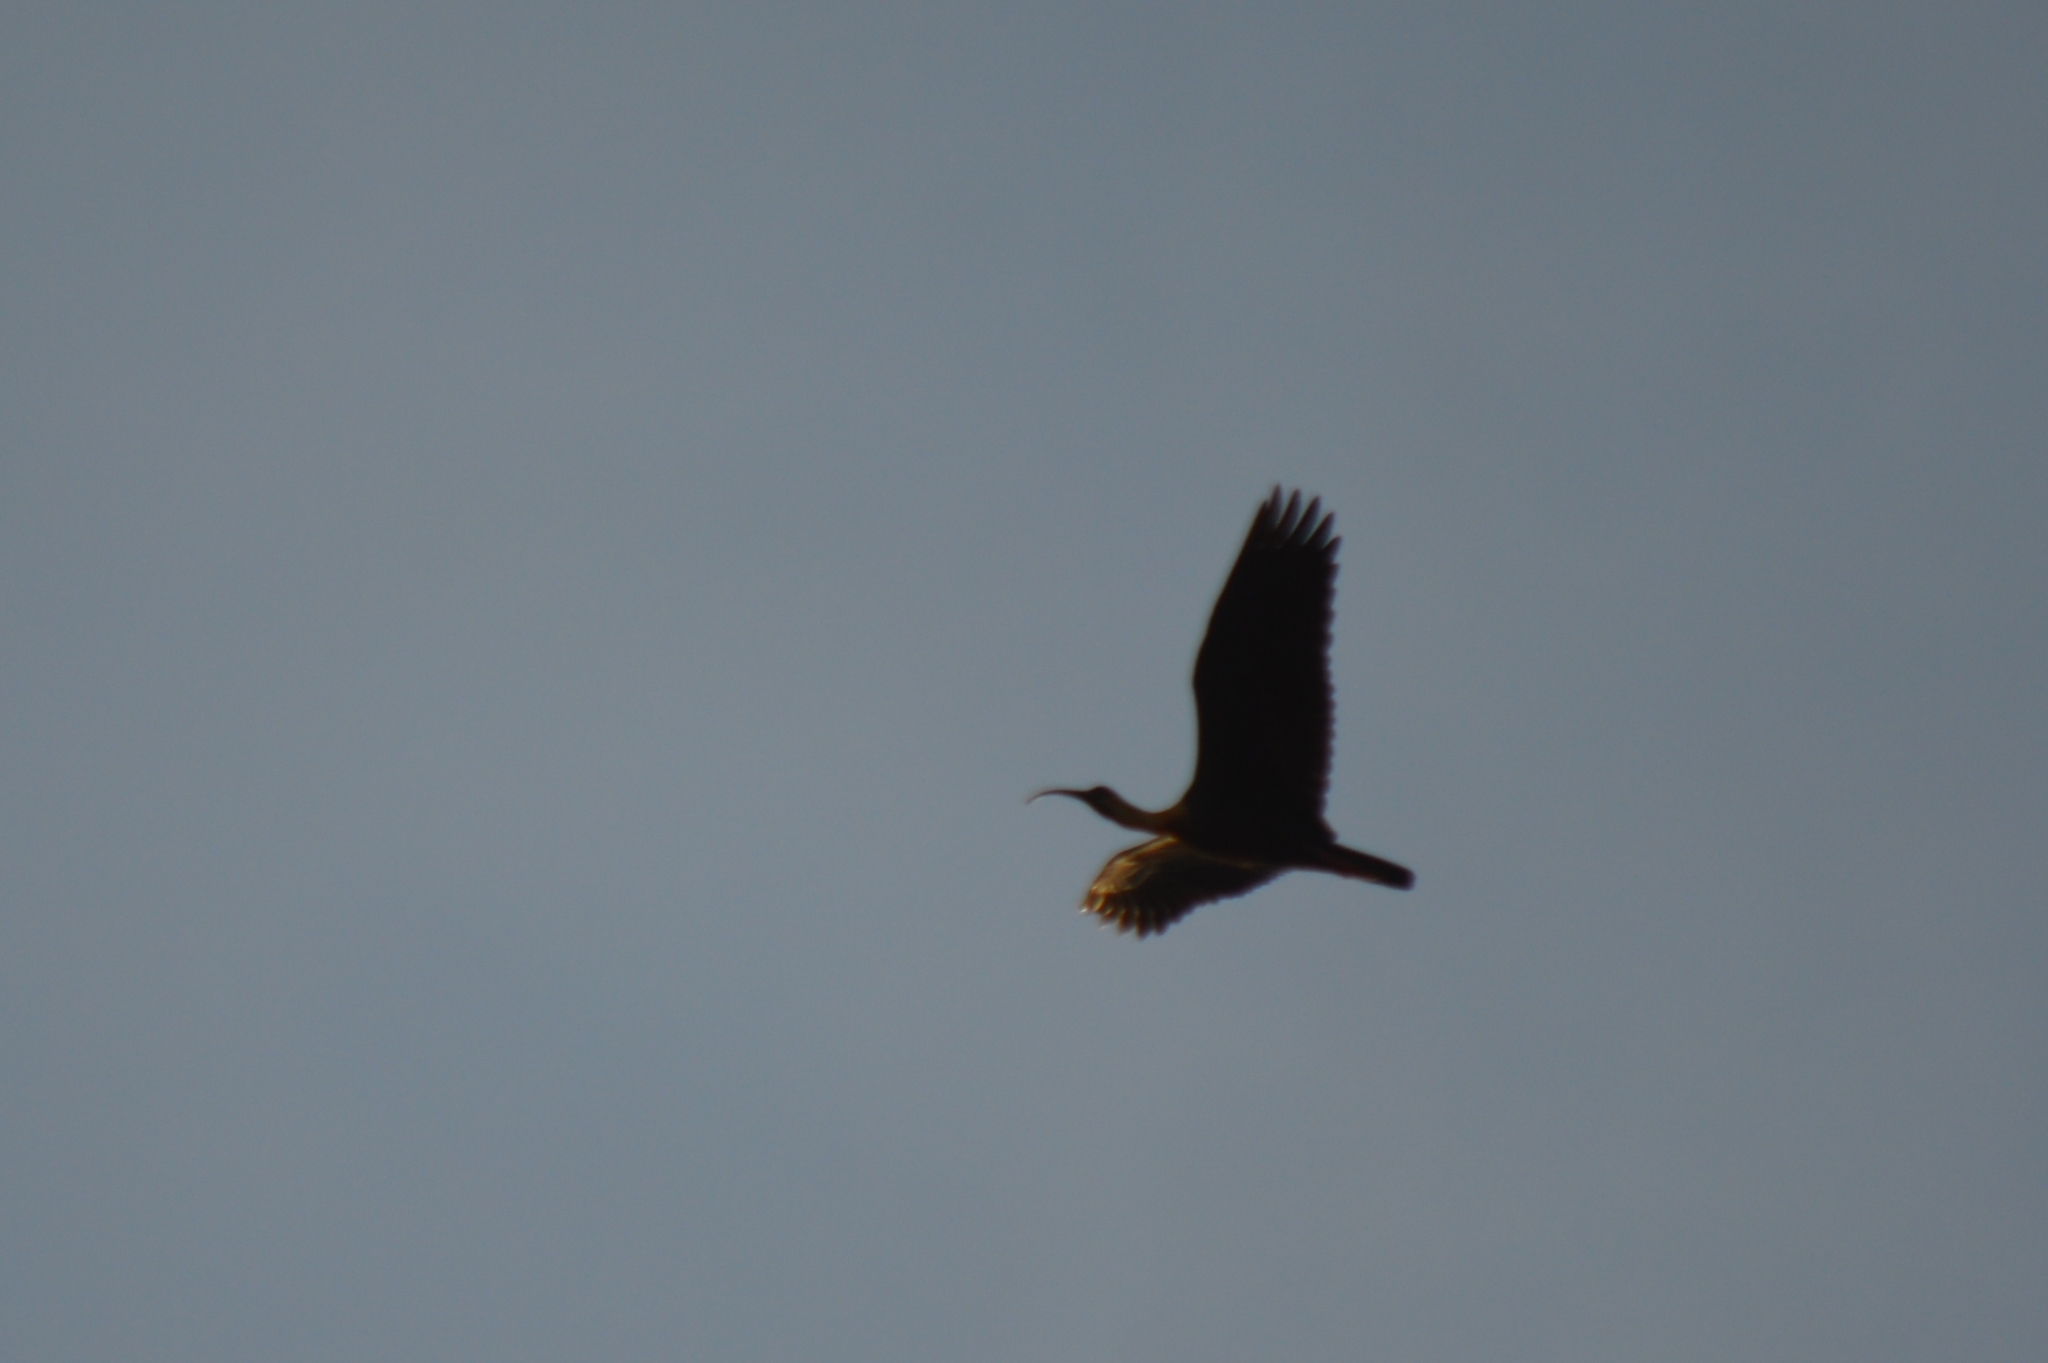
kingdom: Animalia
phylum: Chordata
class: Aves
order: Pelecaniformes
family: Threskiornithidae
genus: Theristicus
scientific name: Theristicus caudatus
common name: Buff-necked ibis
